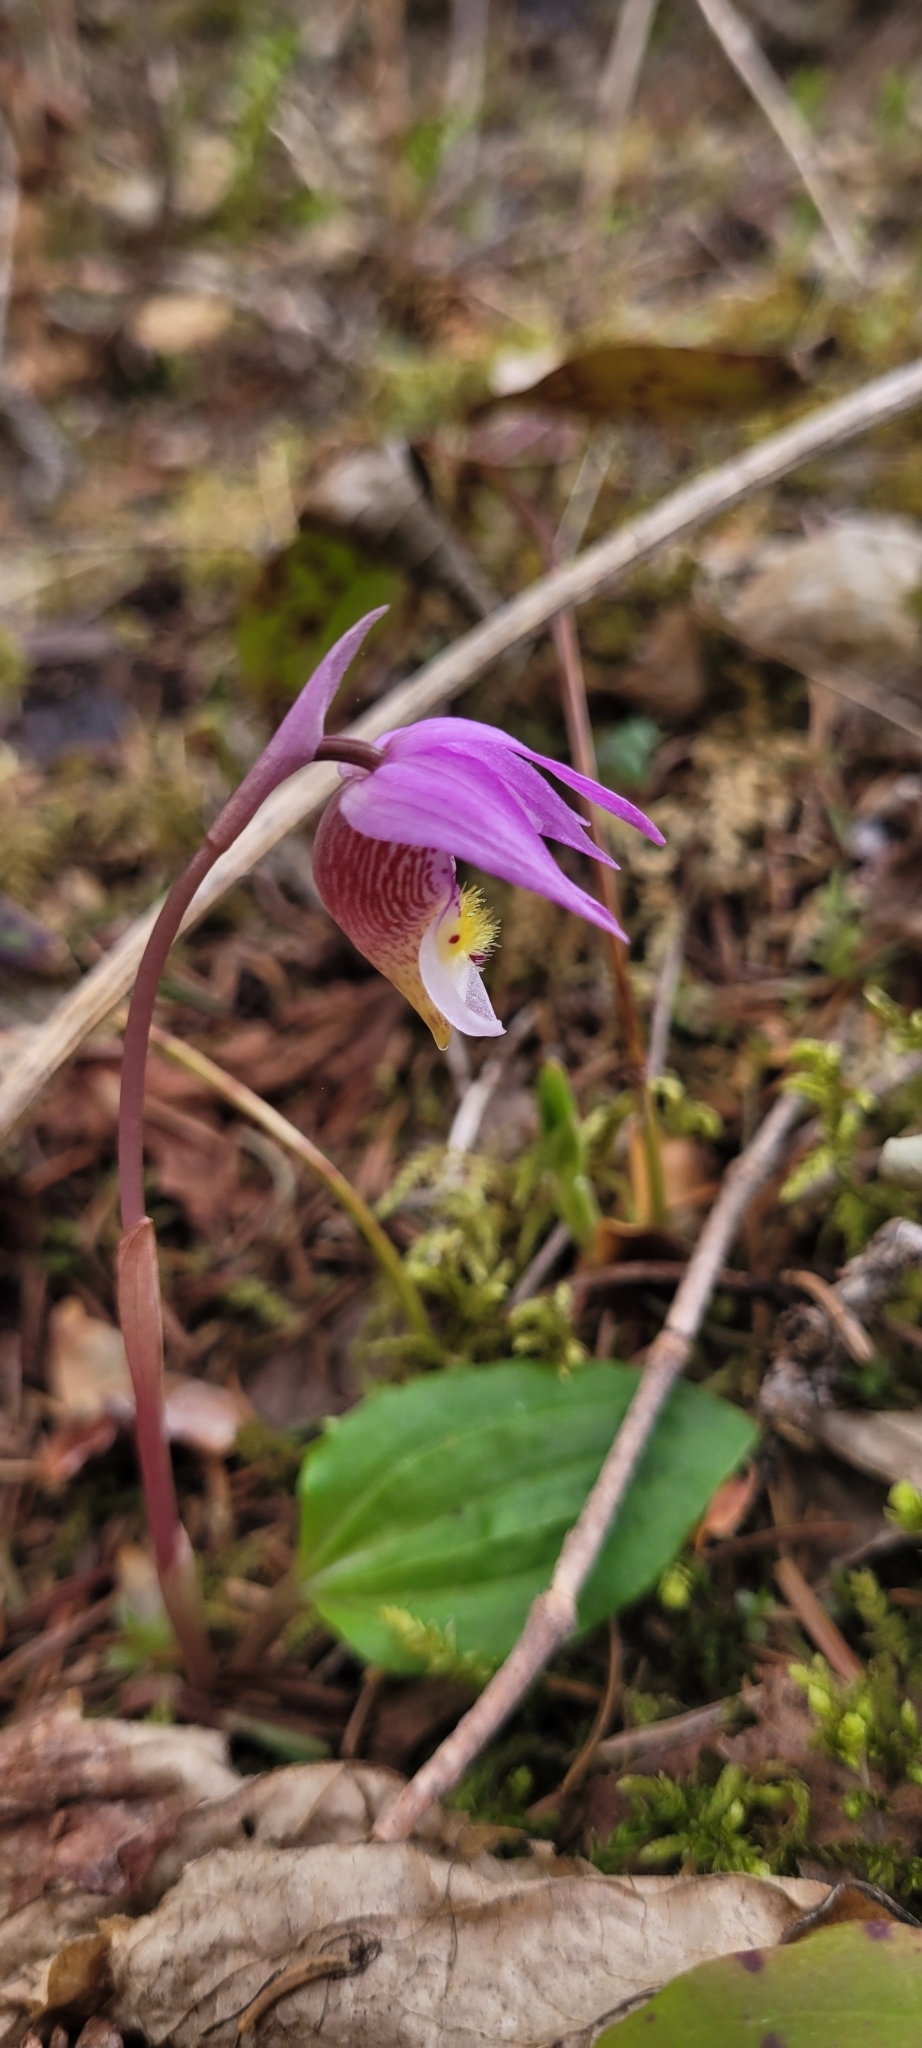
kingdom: Plantae
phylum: Tracheophyta
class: Liliopsida
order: Asparagales
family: Orchidaceae
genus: Calypso
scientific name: Calypso bulbosa
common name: Calypso
